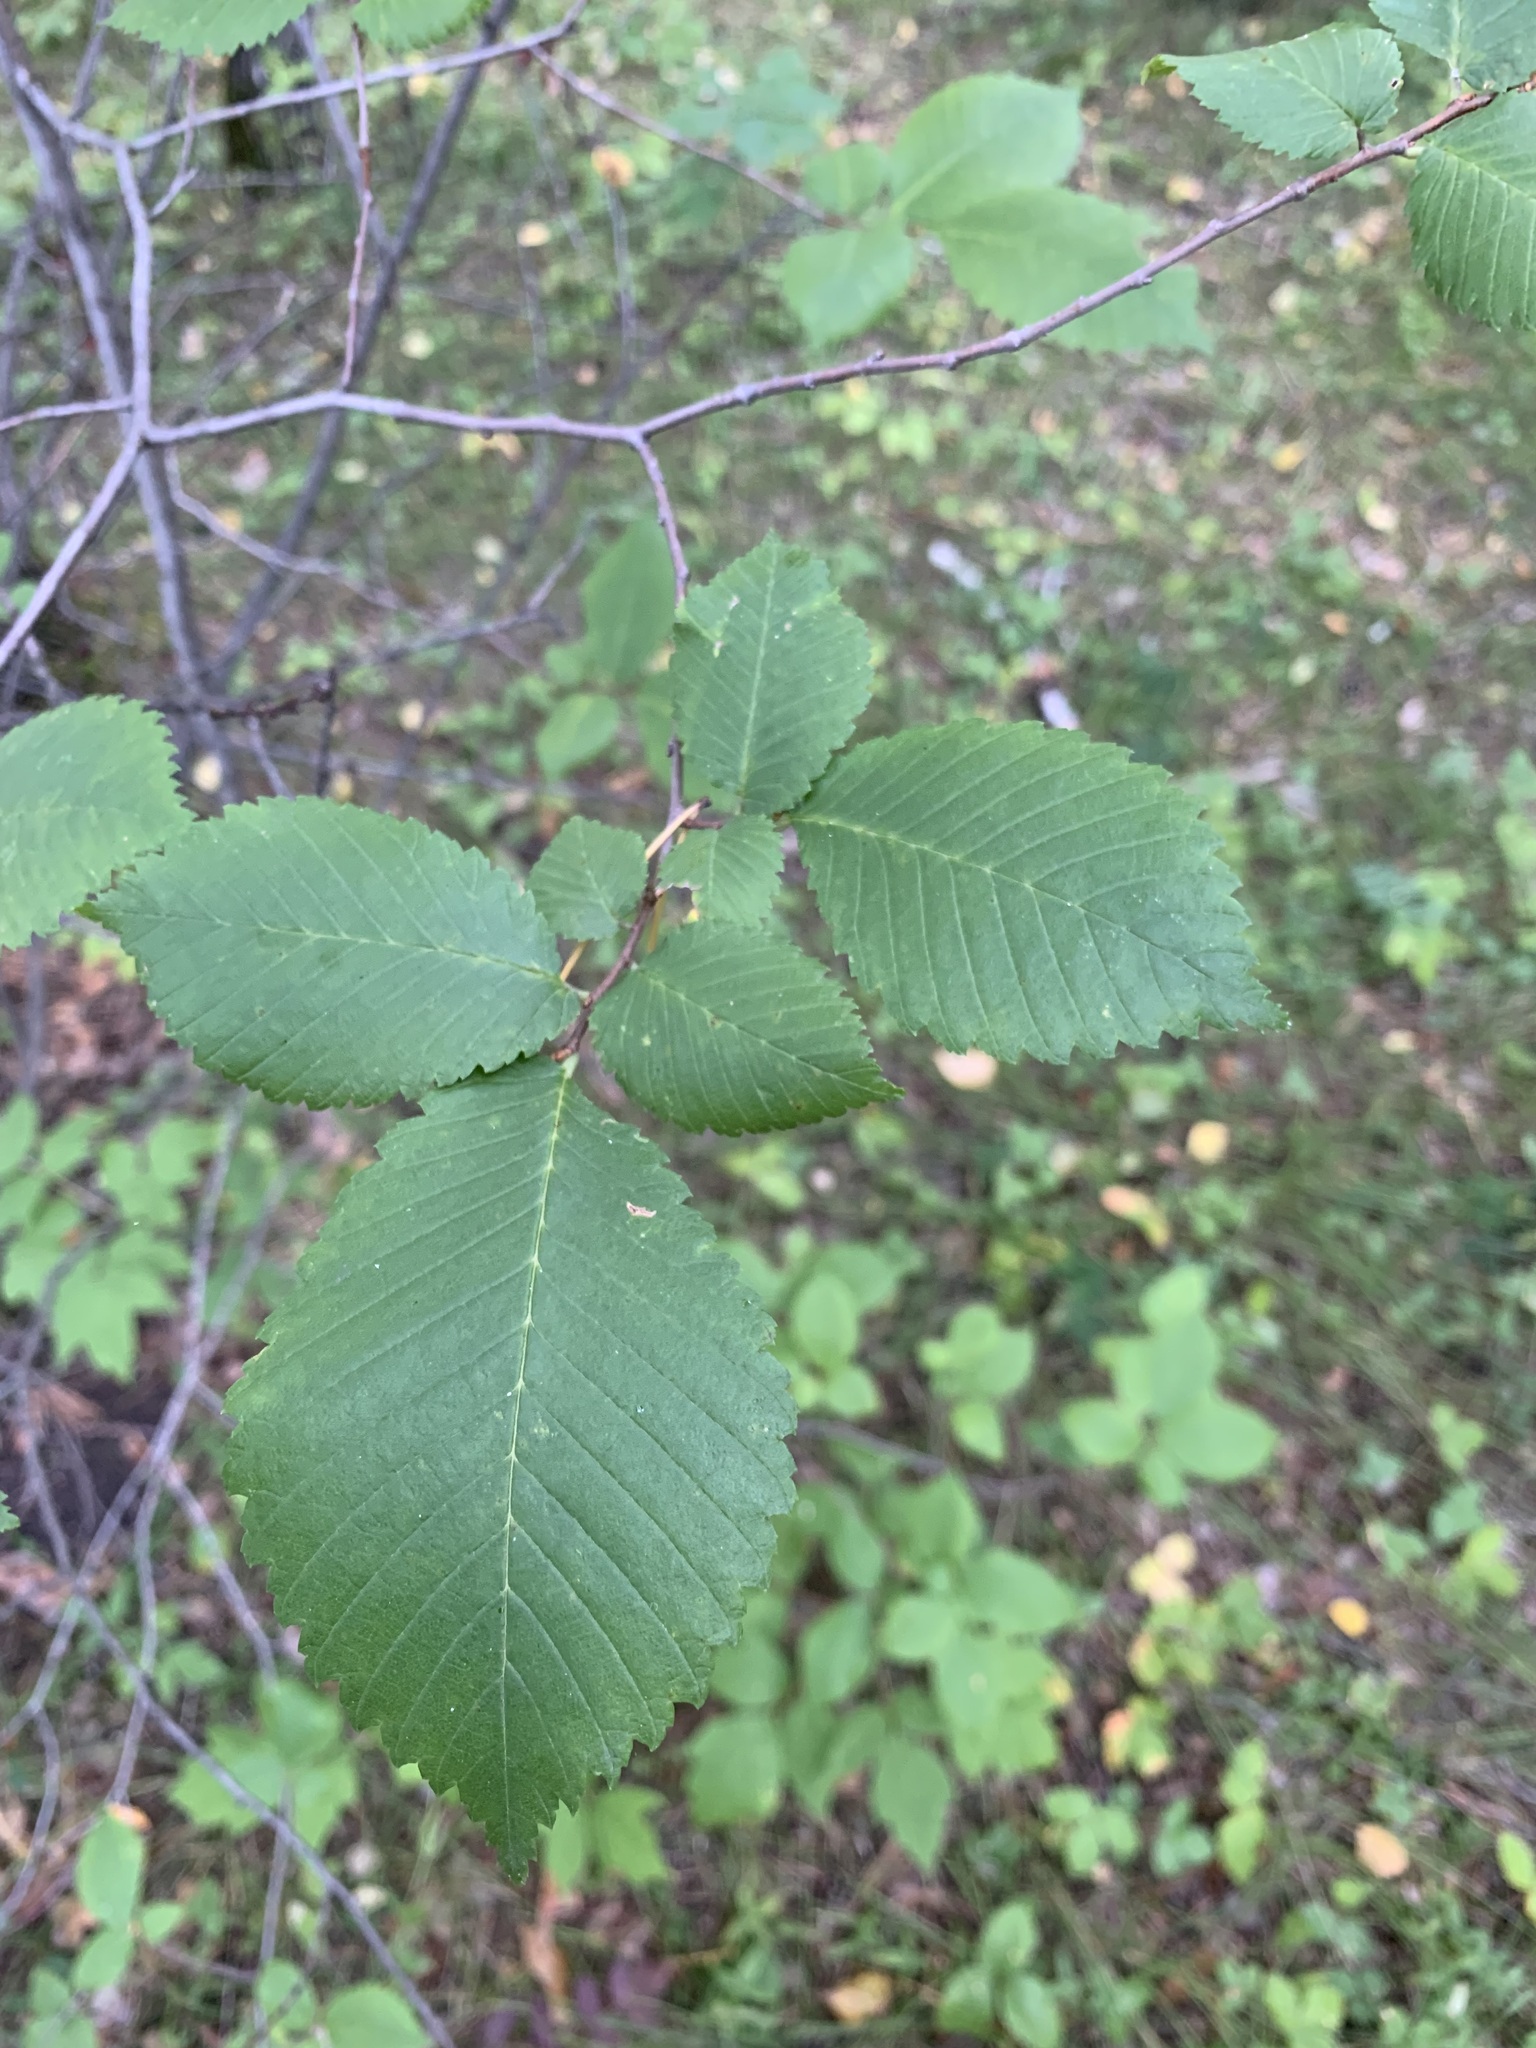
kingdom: Plantae
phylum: Tracheophyta
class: Magnoliopsida
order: Rosales
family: Ulmaceae
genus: Ulmus
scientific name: Ulmus laevis
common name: European white-elm
